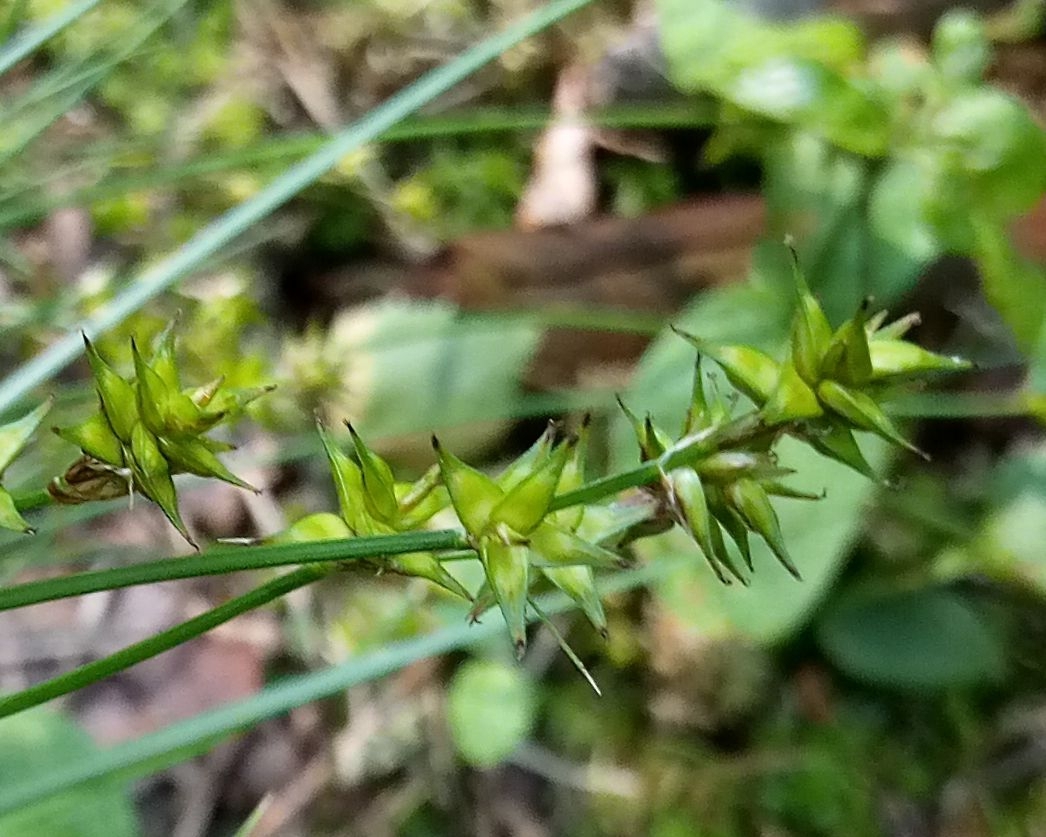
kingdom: Plantae
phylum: Tracheophyta
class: Liliopsida
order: Poales
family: Cyperaceae
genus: Carex
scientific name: Carex echinata
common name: Star sedge
